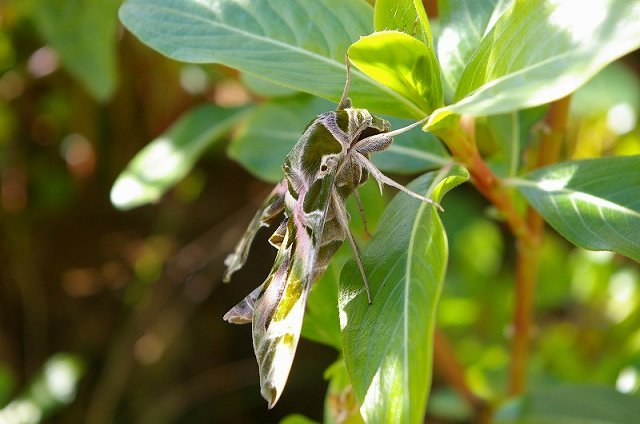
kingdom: Animalia
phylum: Arthropoda
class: Insecta
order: Lepidoptera
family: Sphingidae
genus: Daphnis
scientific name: Daphnis nerii
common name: Oleander hawk-moth
